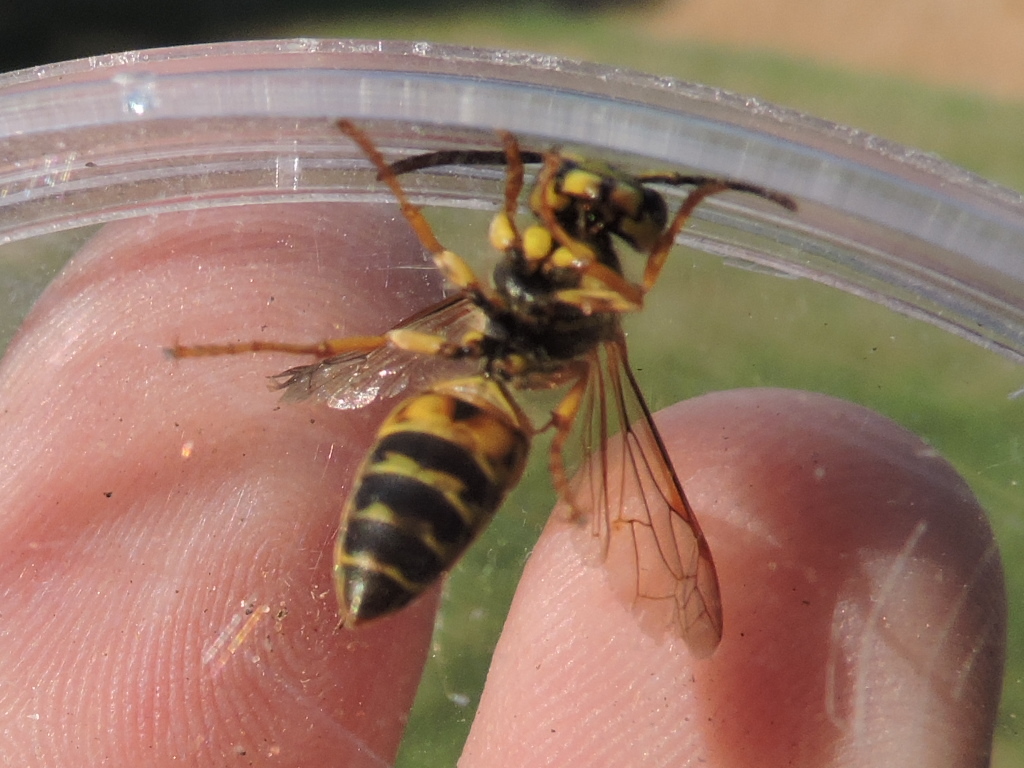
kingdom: Animalia
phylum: Arthropoda
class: Insecta
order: Hymenoptera
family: Vespidae
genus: Vespula
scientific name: Vespula squamosa
